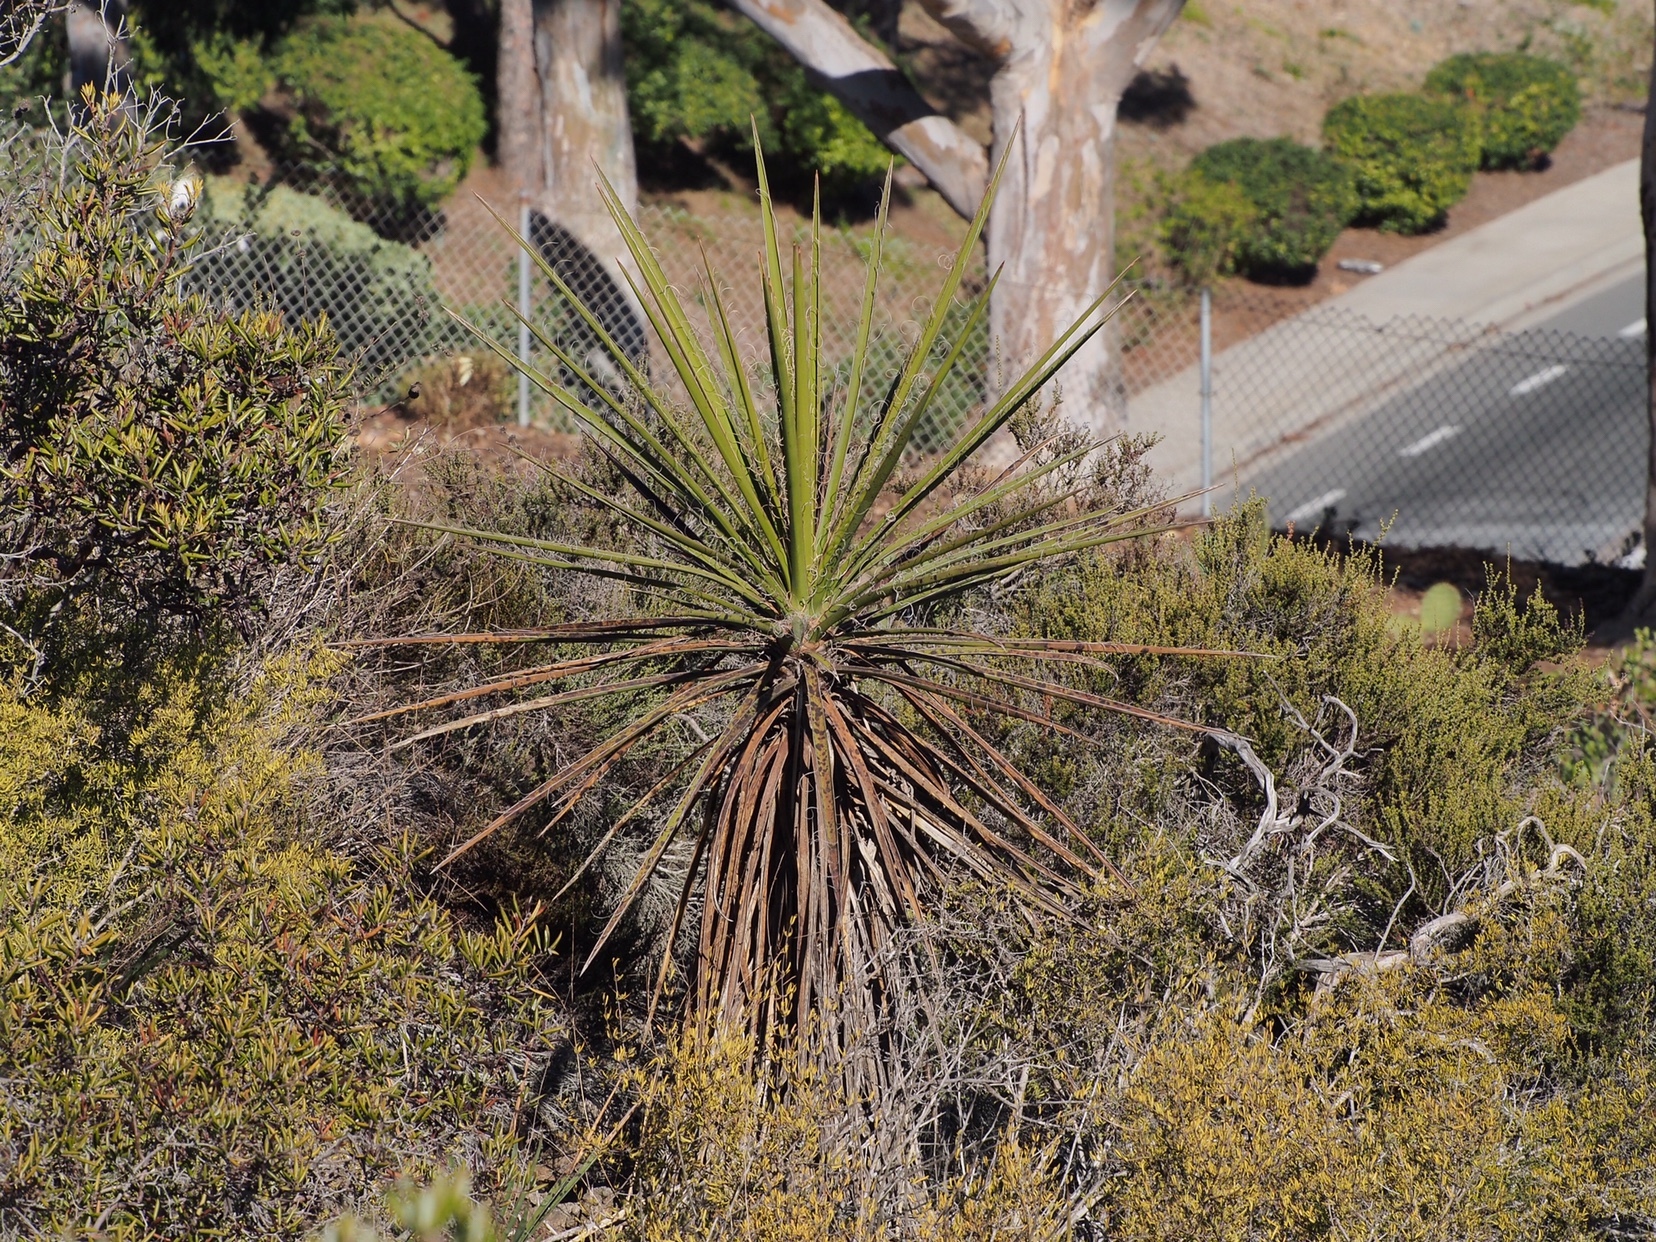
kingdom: Plantae
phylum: Tracheophyta
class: Liliopsida
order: Asparagales
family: Asparagaceae
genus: Yucca
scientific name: Yucca schidigera
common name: Mojave yucca
